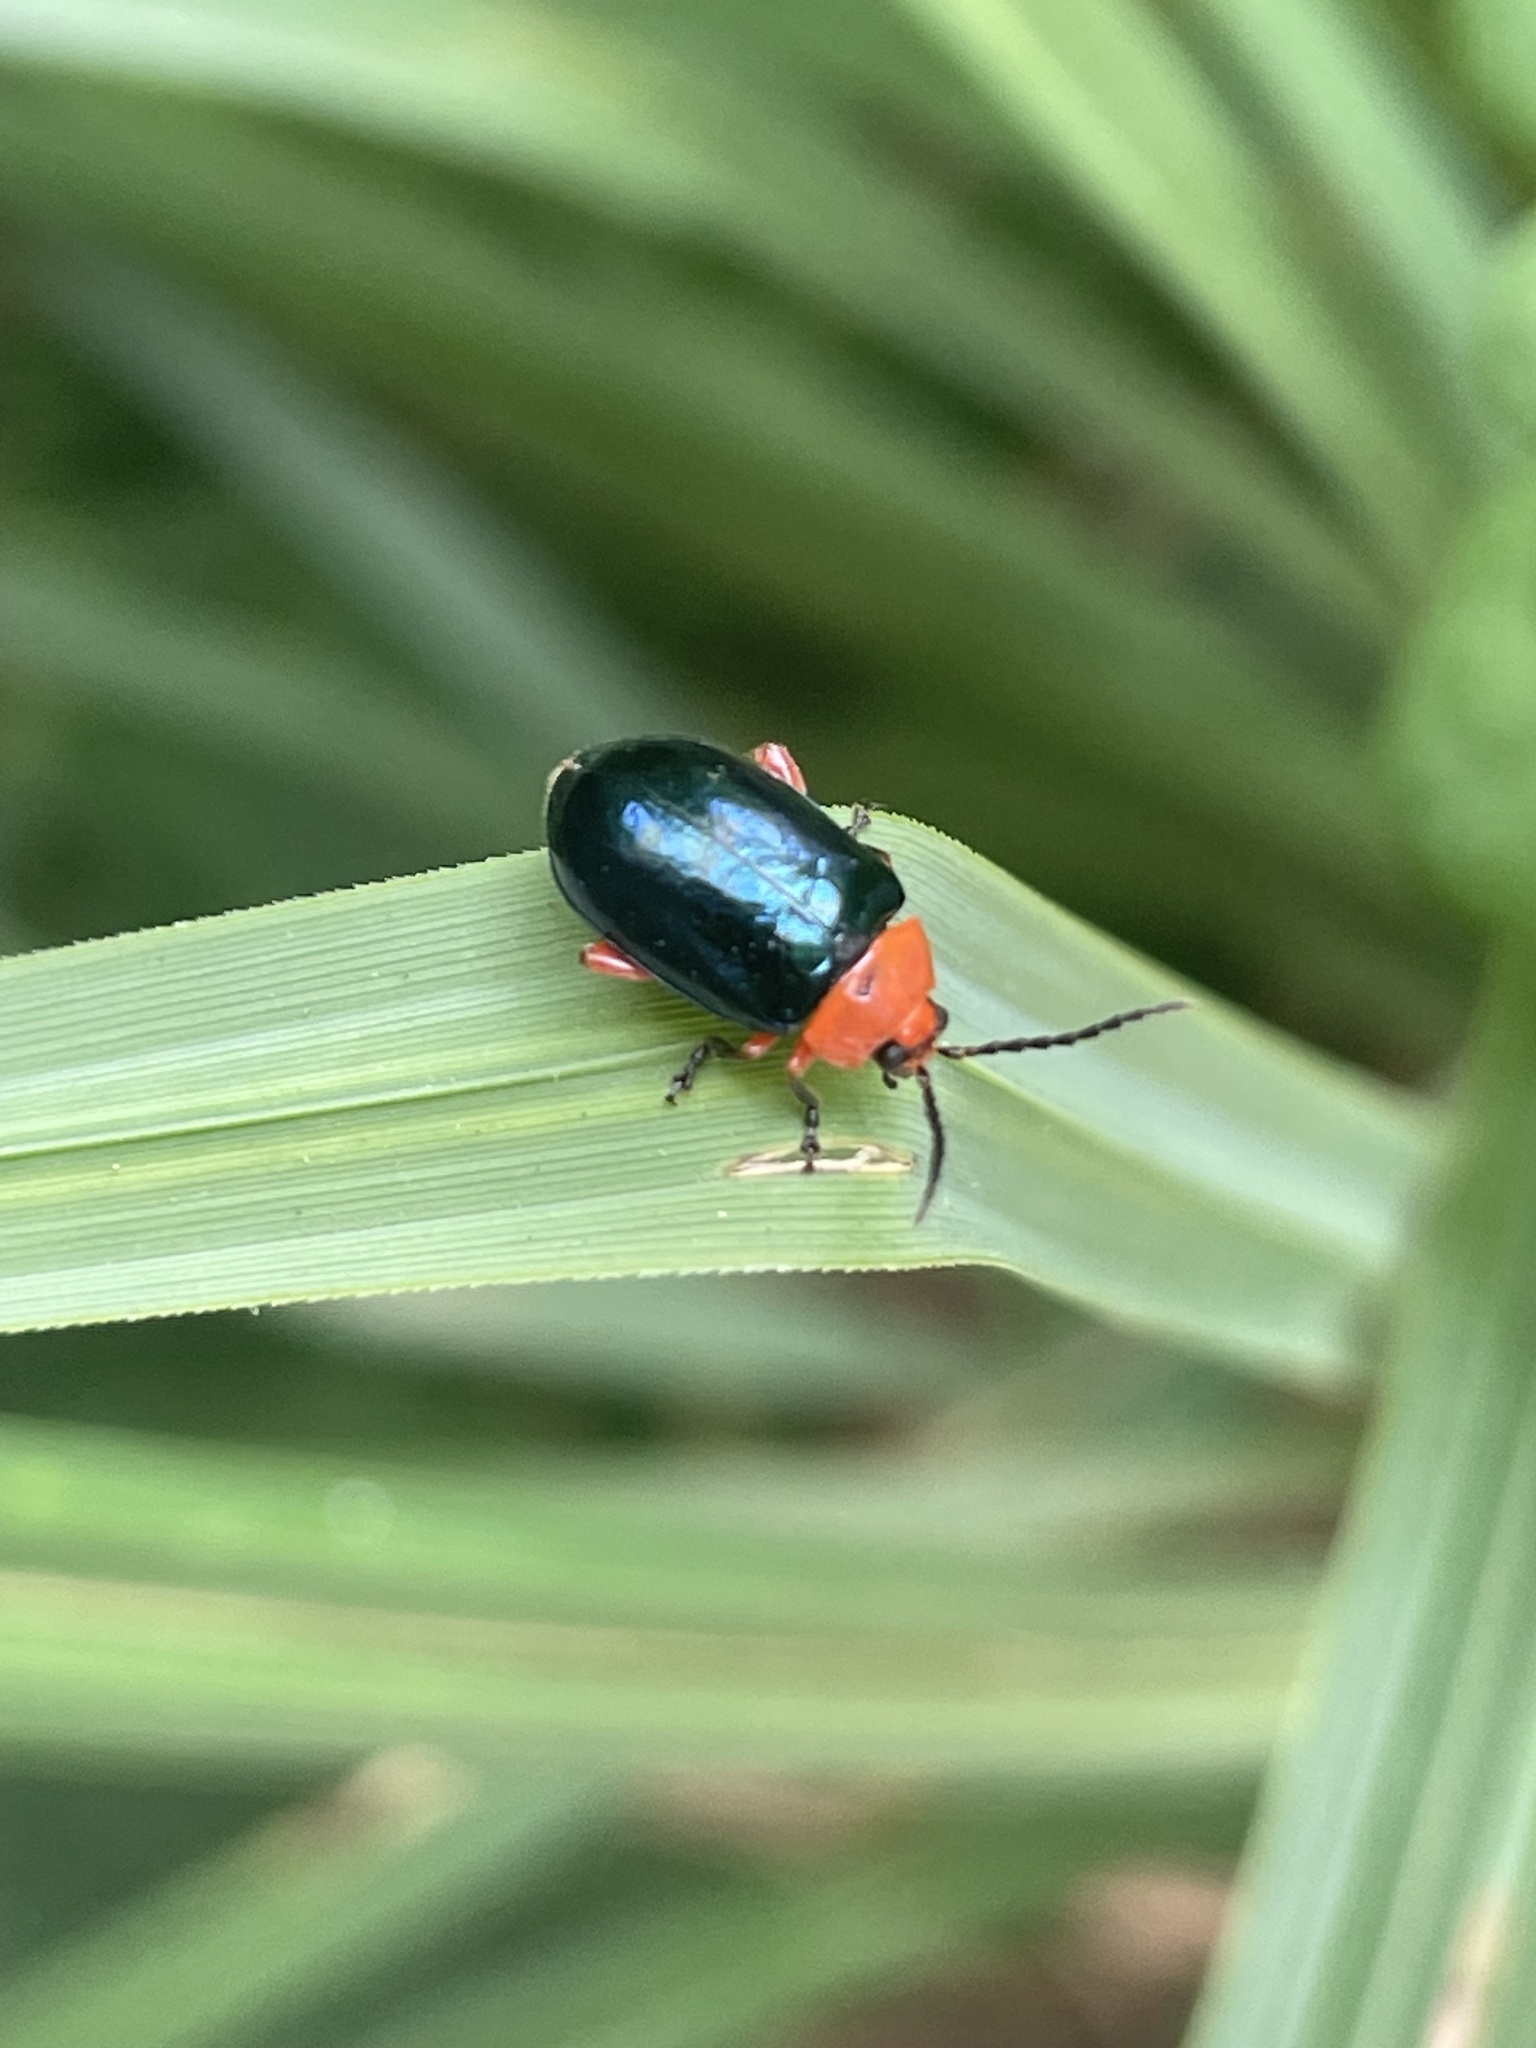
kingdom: Animalia
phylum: Arthropoda
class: Insecta
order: Coleoptera
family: Chrysomelidae
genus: Asphaera
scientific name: Asphaera lustrans
